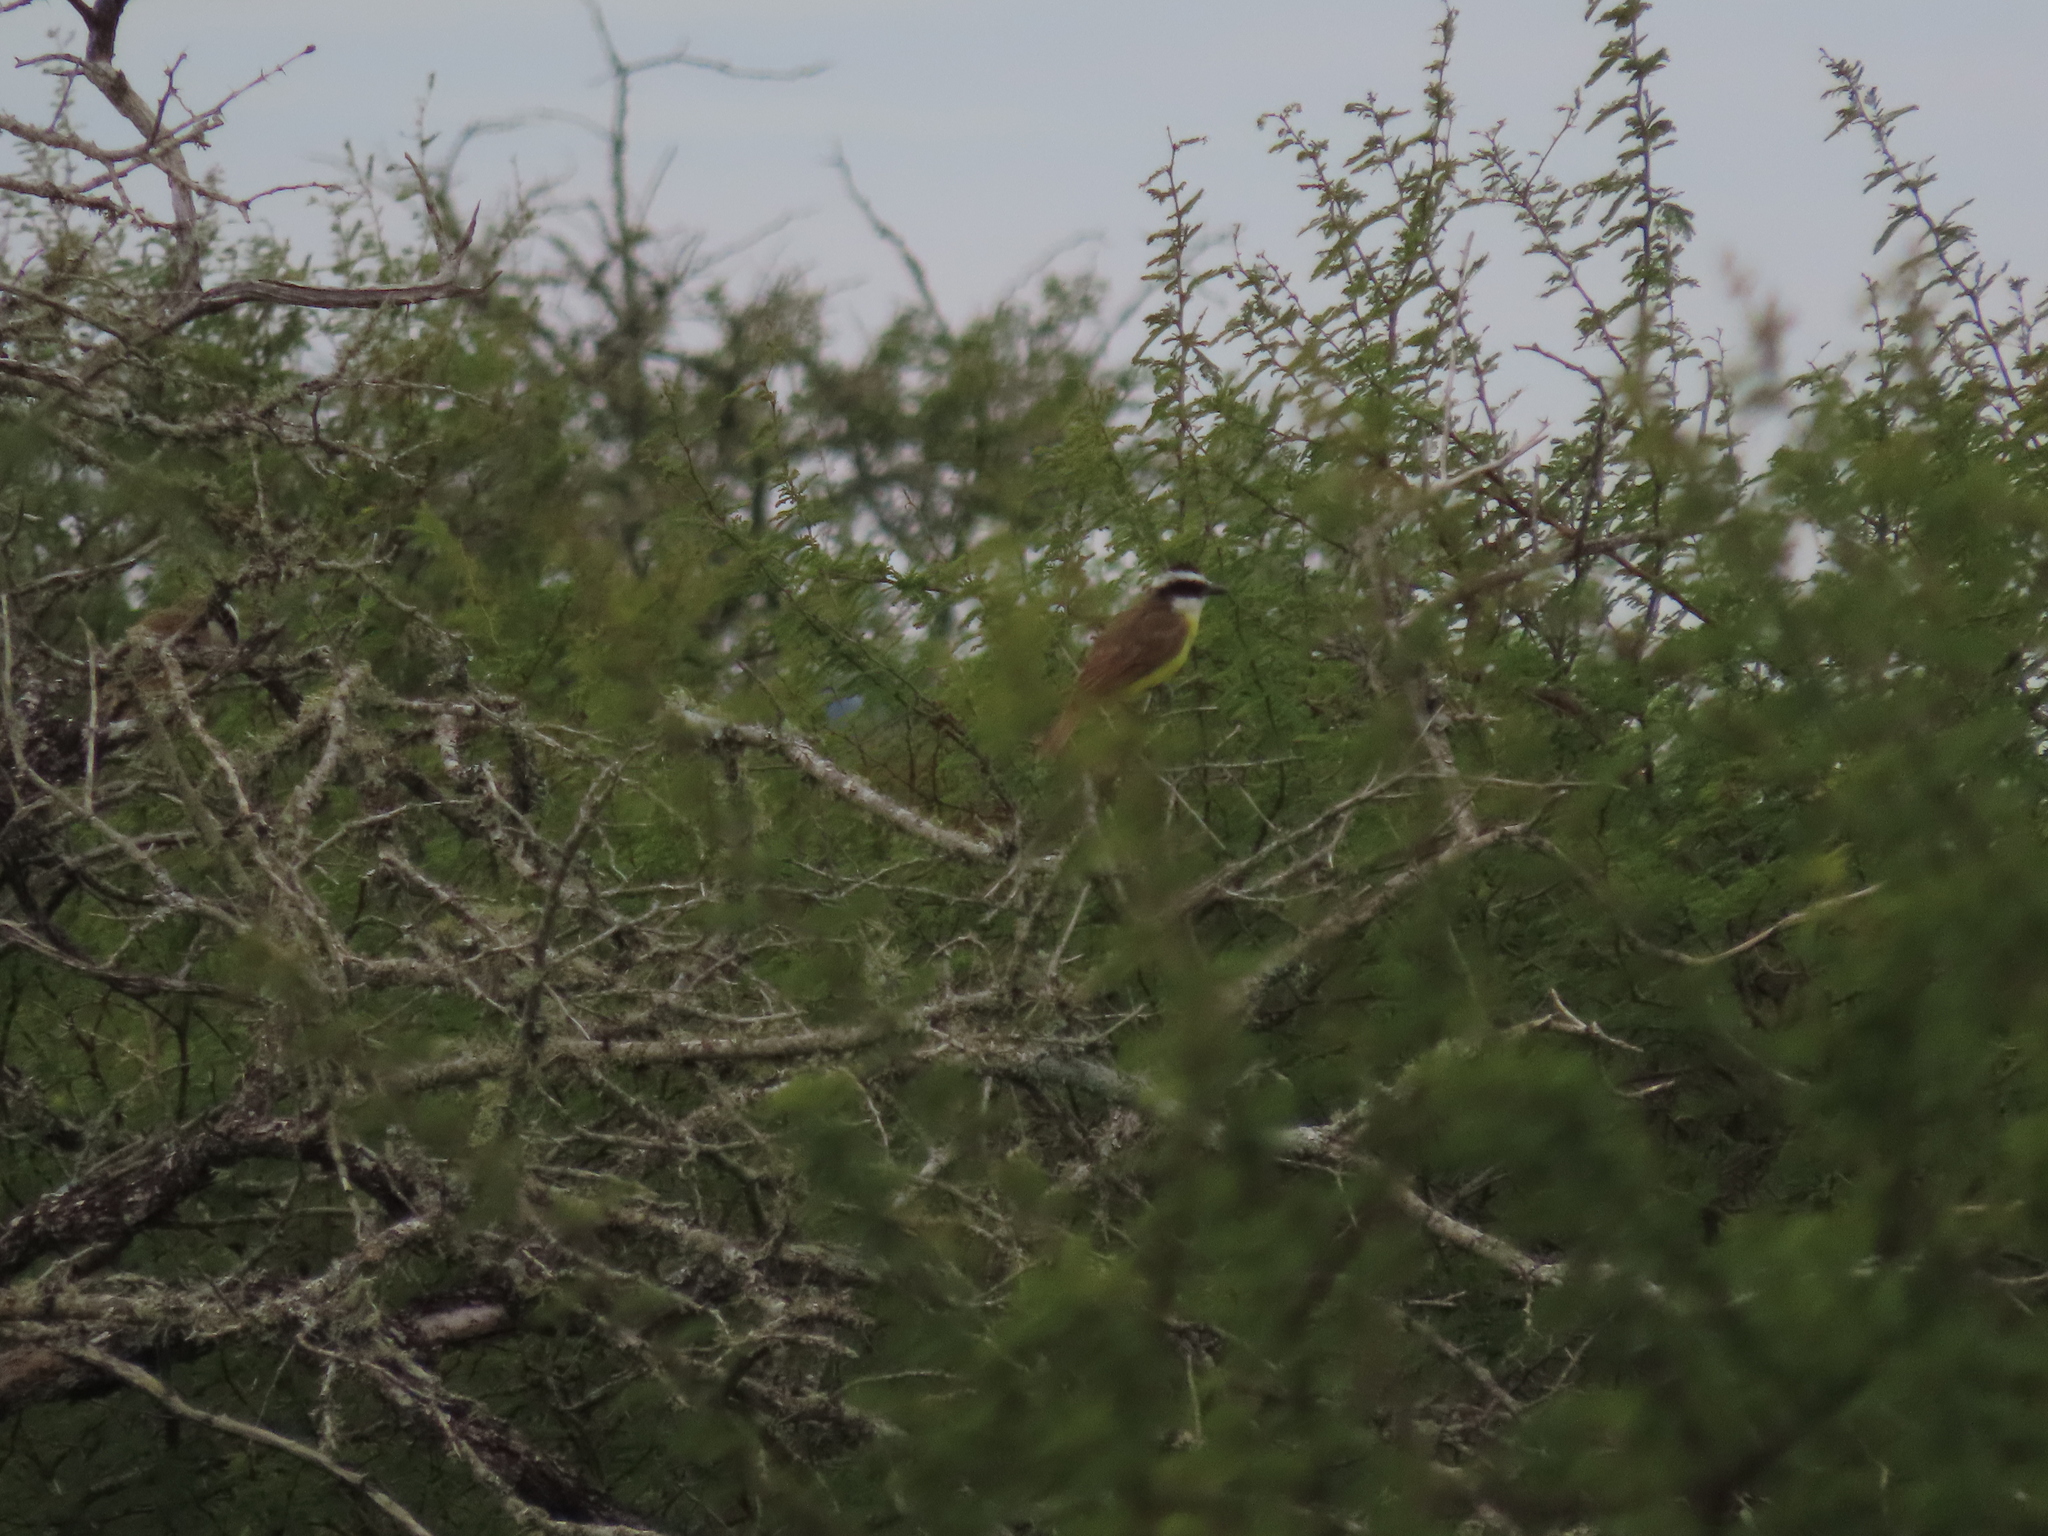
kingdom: Animalia
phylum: Chordata
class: Aves
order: Passeriformes
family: Tyrannidae
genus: Pitangus
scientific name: Pitangus sulphuratus
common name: Great kiskadee
